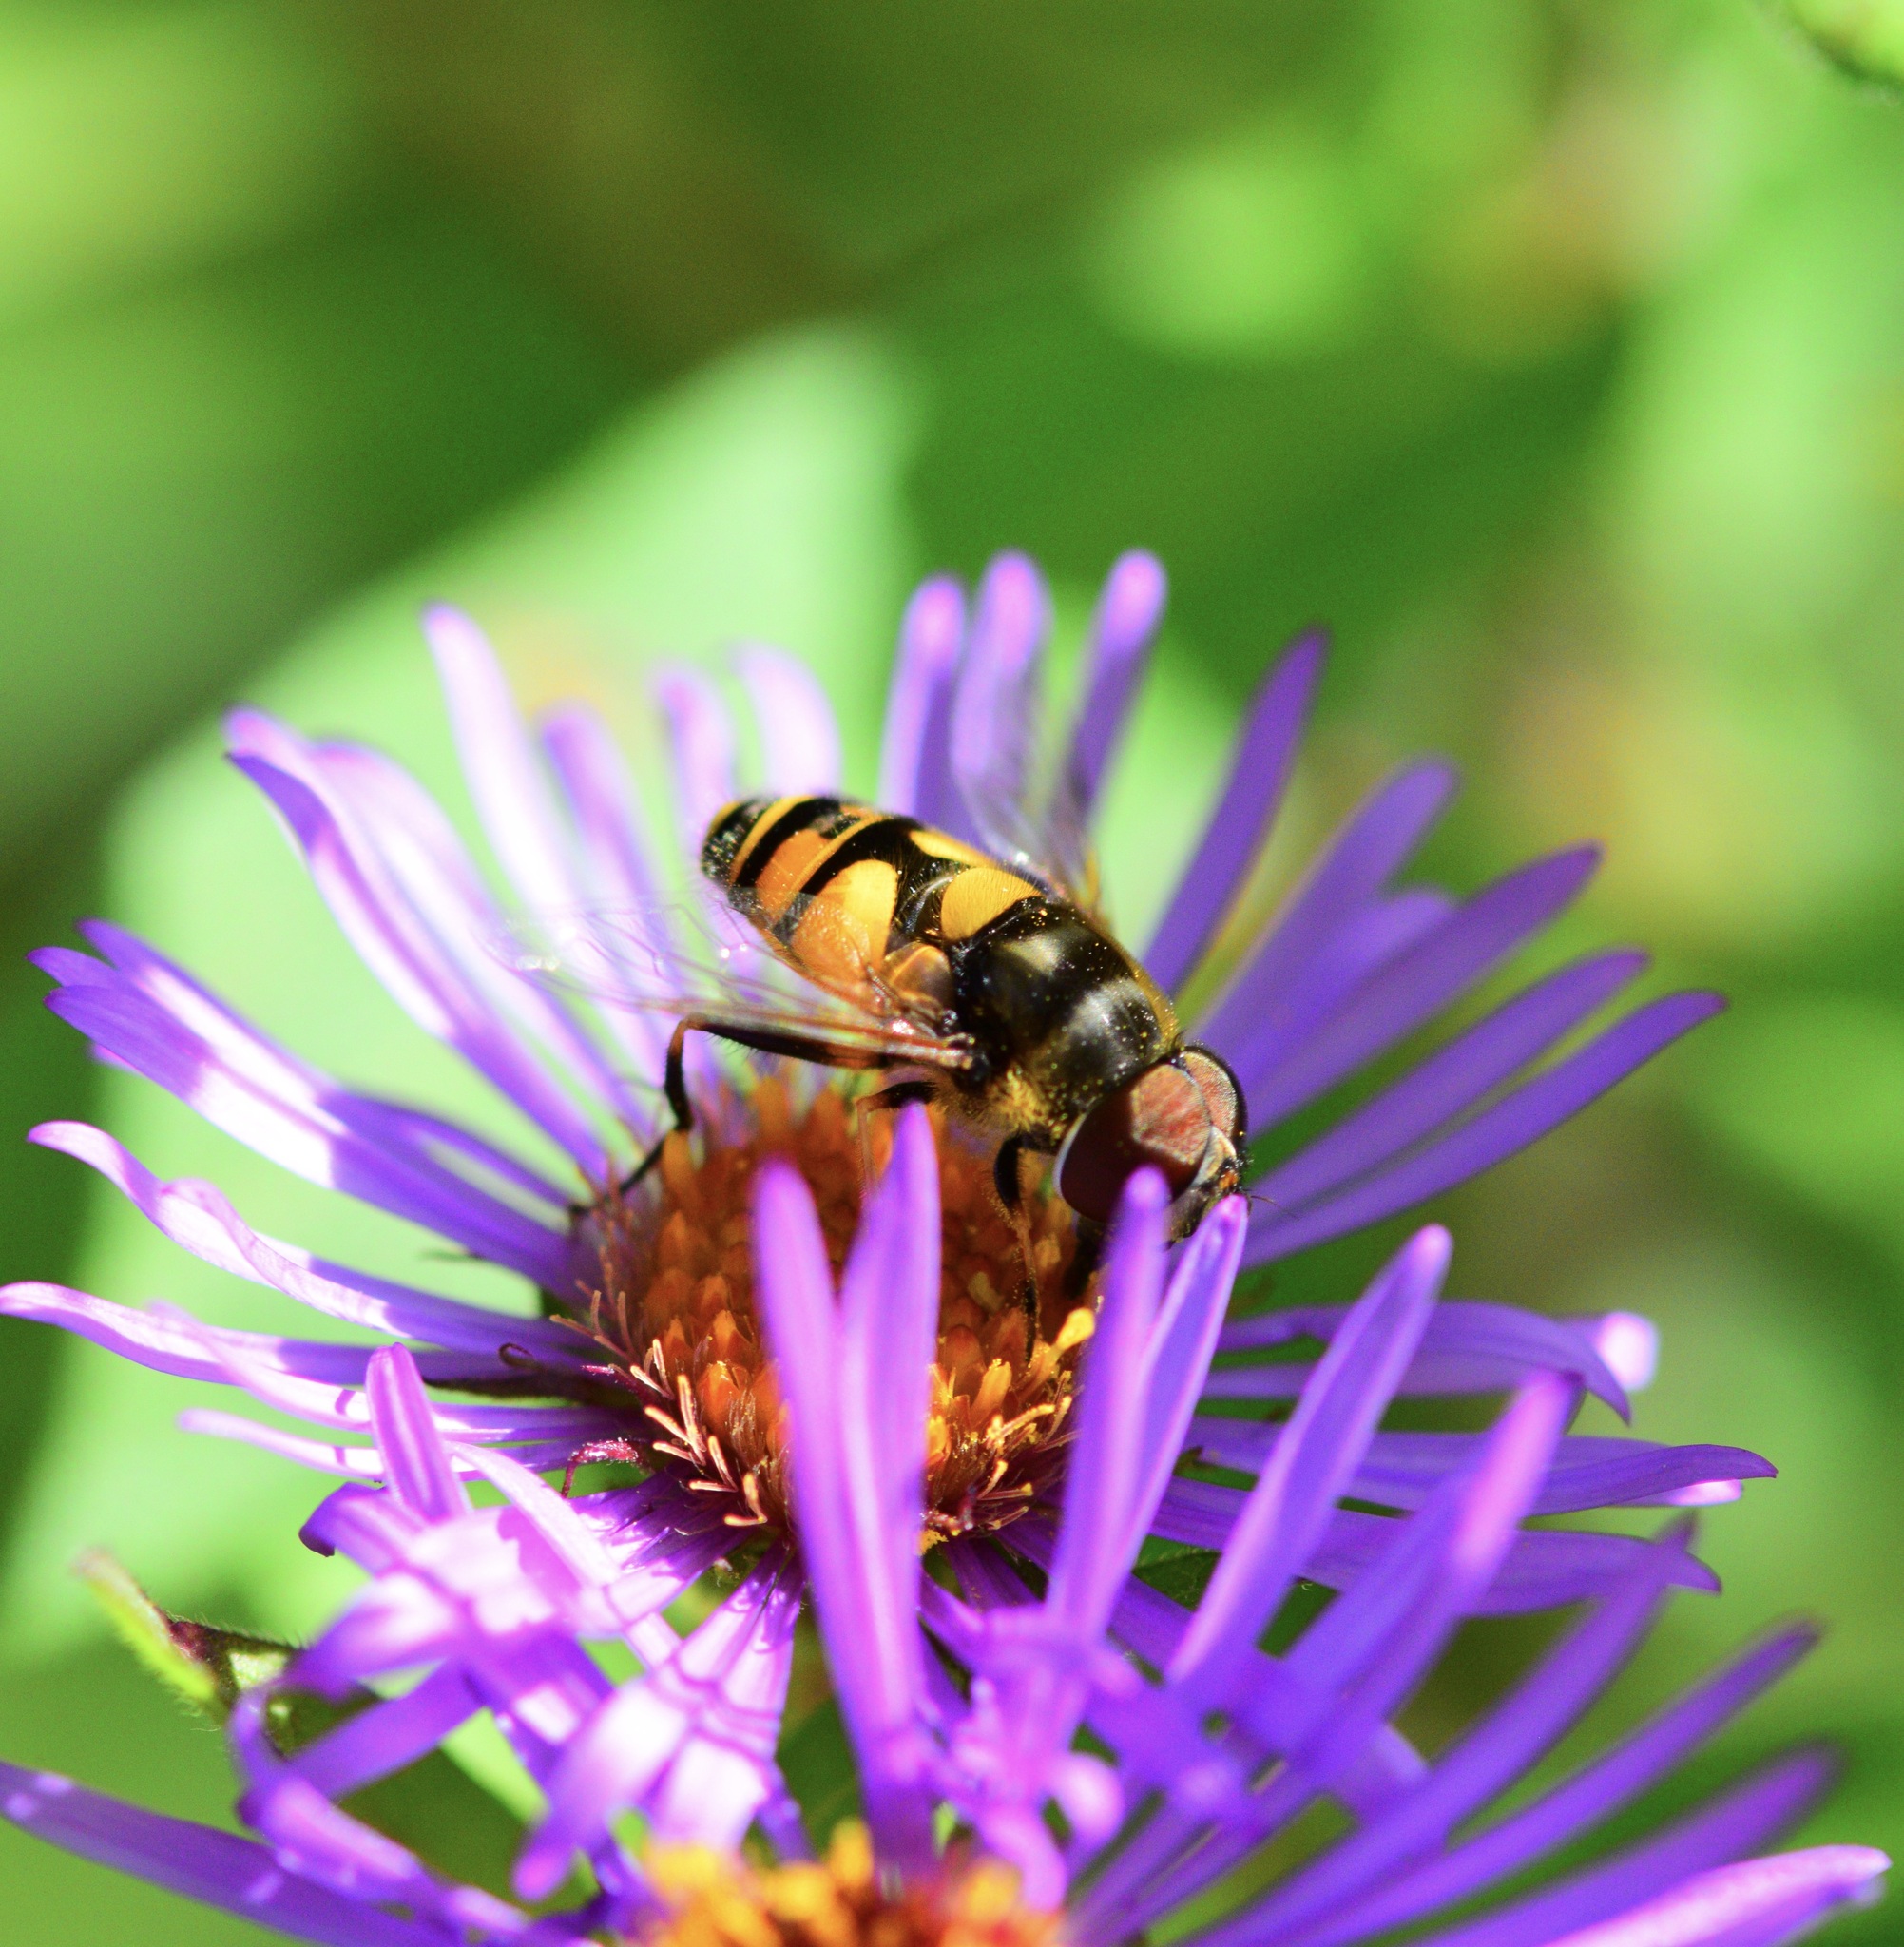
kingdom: Animalia
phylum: Arthropoda
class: Insecta
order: Diptera
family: Syrphidae
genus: Eristalis
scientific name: Eristalis transversa
